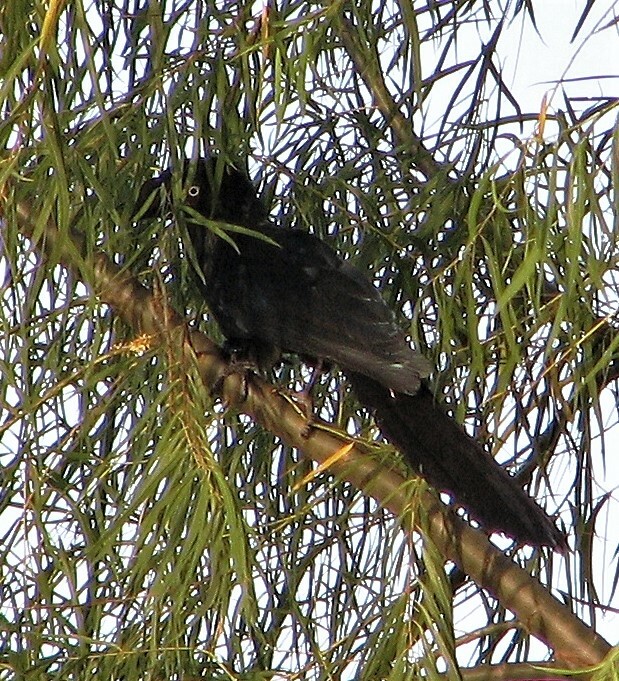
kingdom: Animalia
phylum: Chordata
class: Aves
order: Cuculiformes
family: Cuculidae
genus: Crotophaga
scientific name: Crotophaga major
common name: Greater ani
